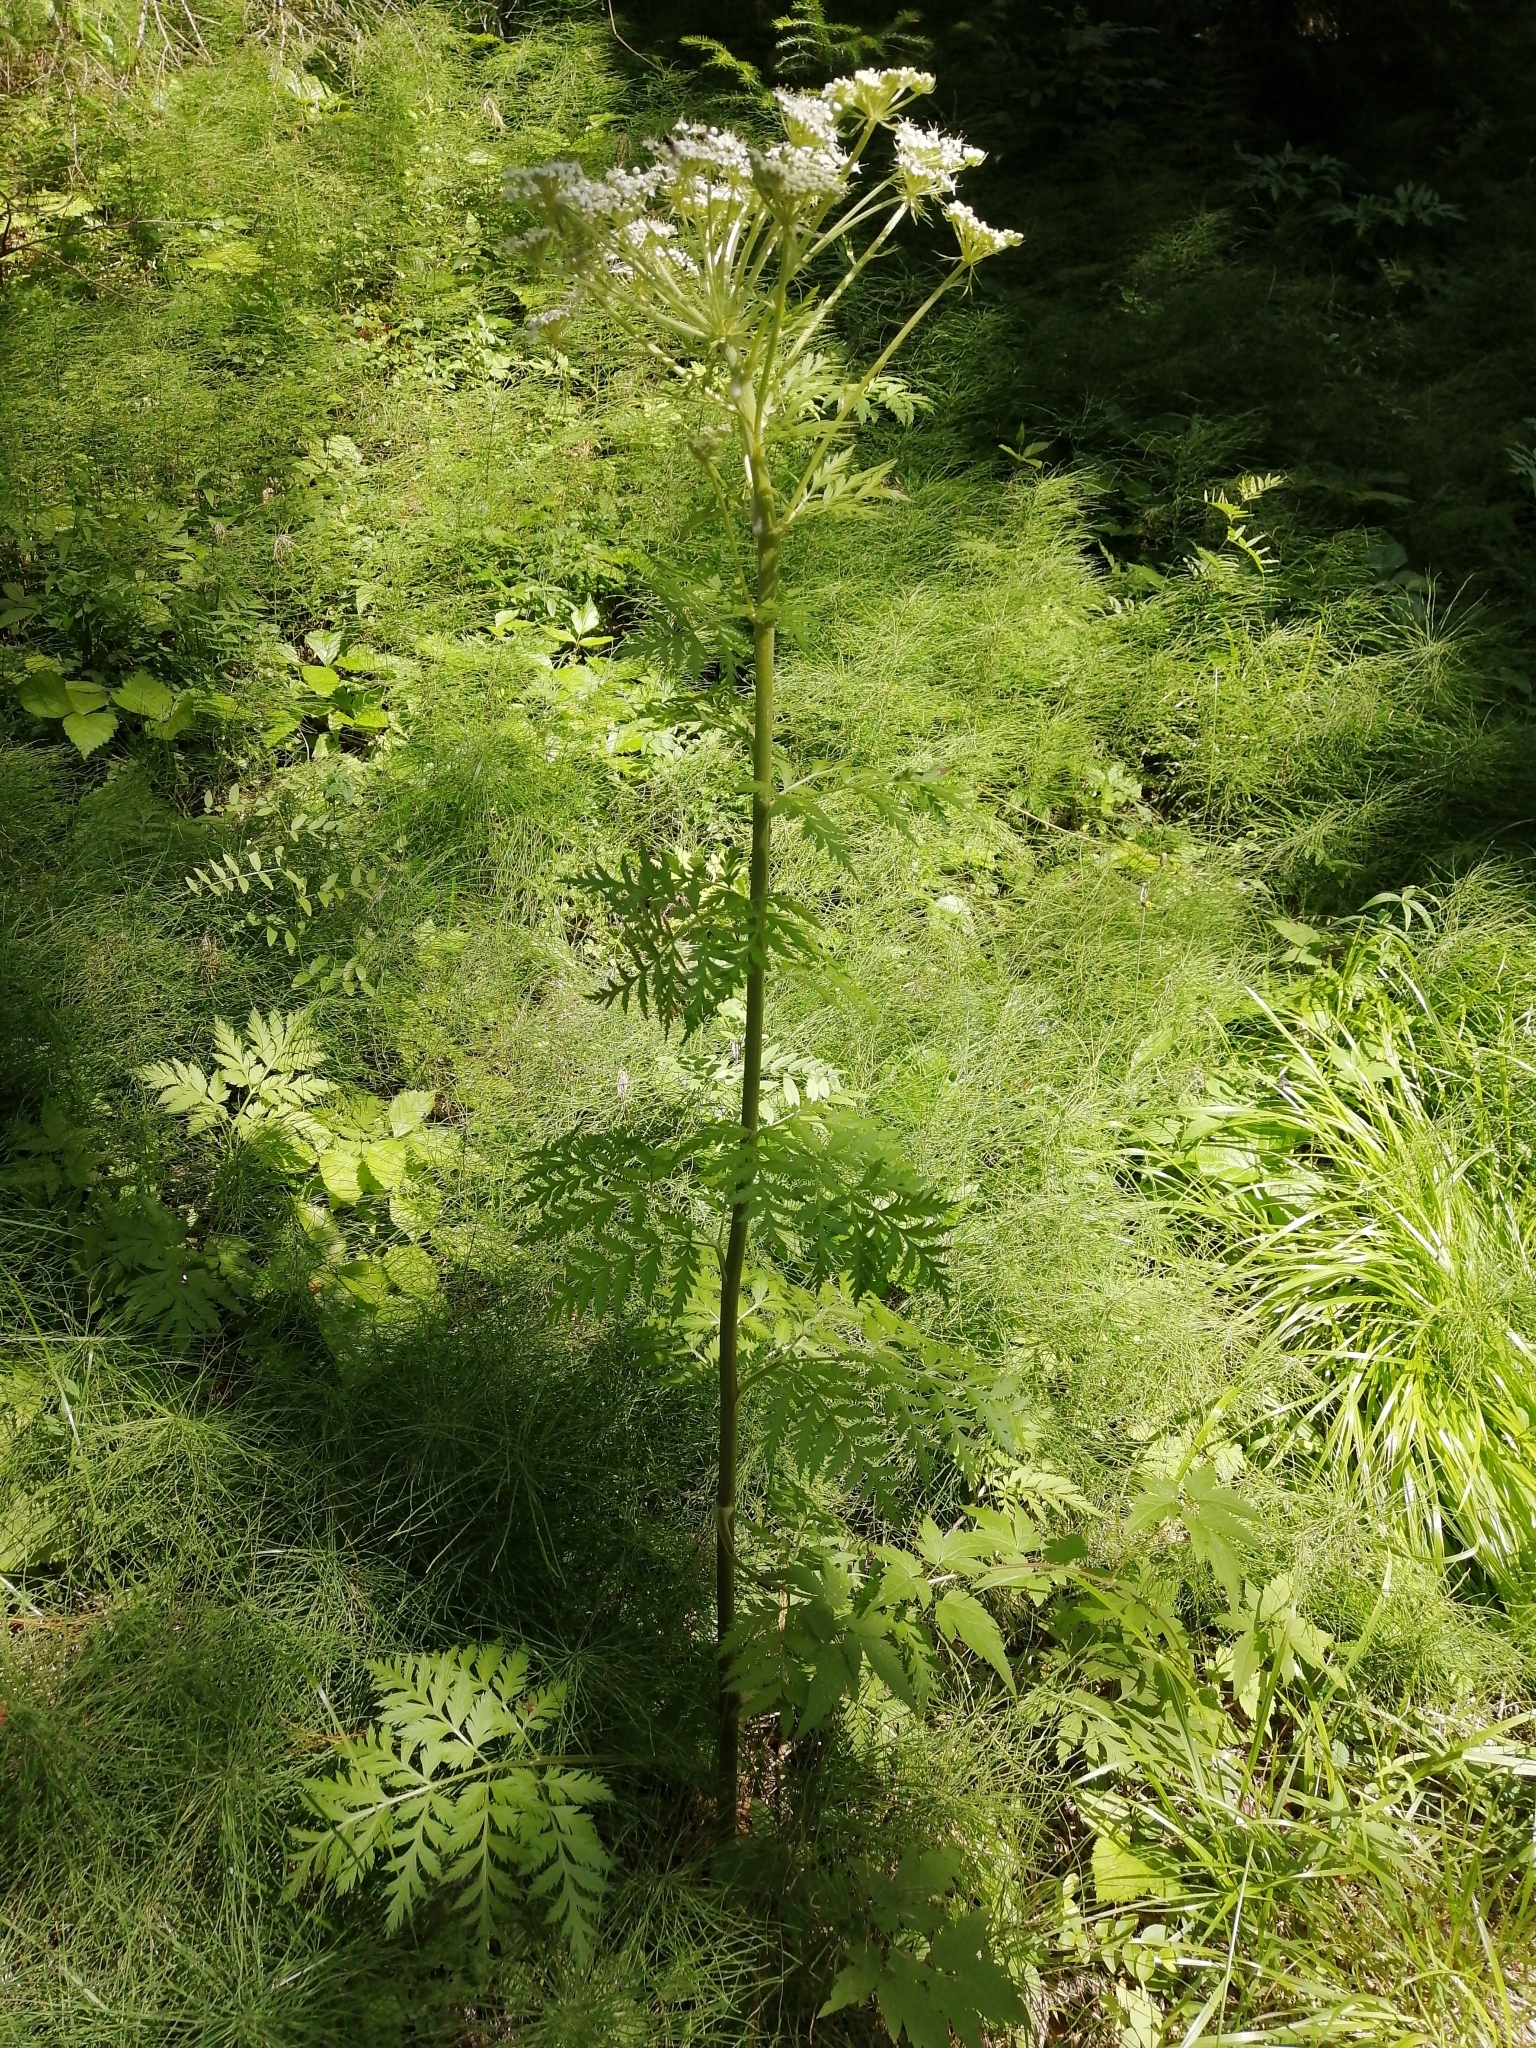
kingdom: Plantae
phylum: Tracheophyta
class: Magnoliopsida
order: Apiales
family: Apiaceae
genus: Pleurospermum
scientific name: Pleurospermum uralense
